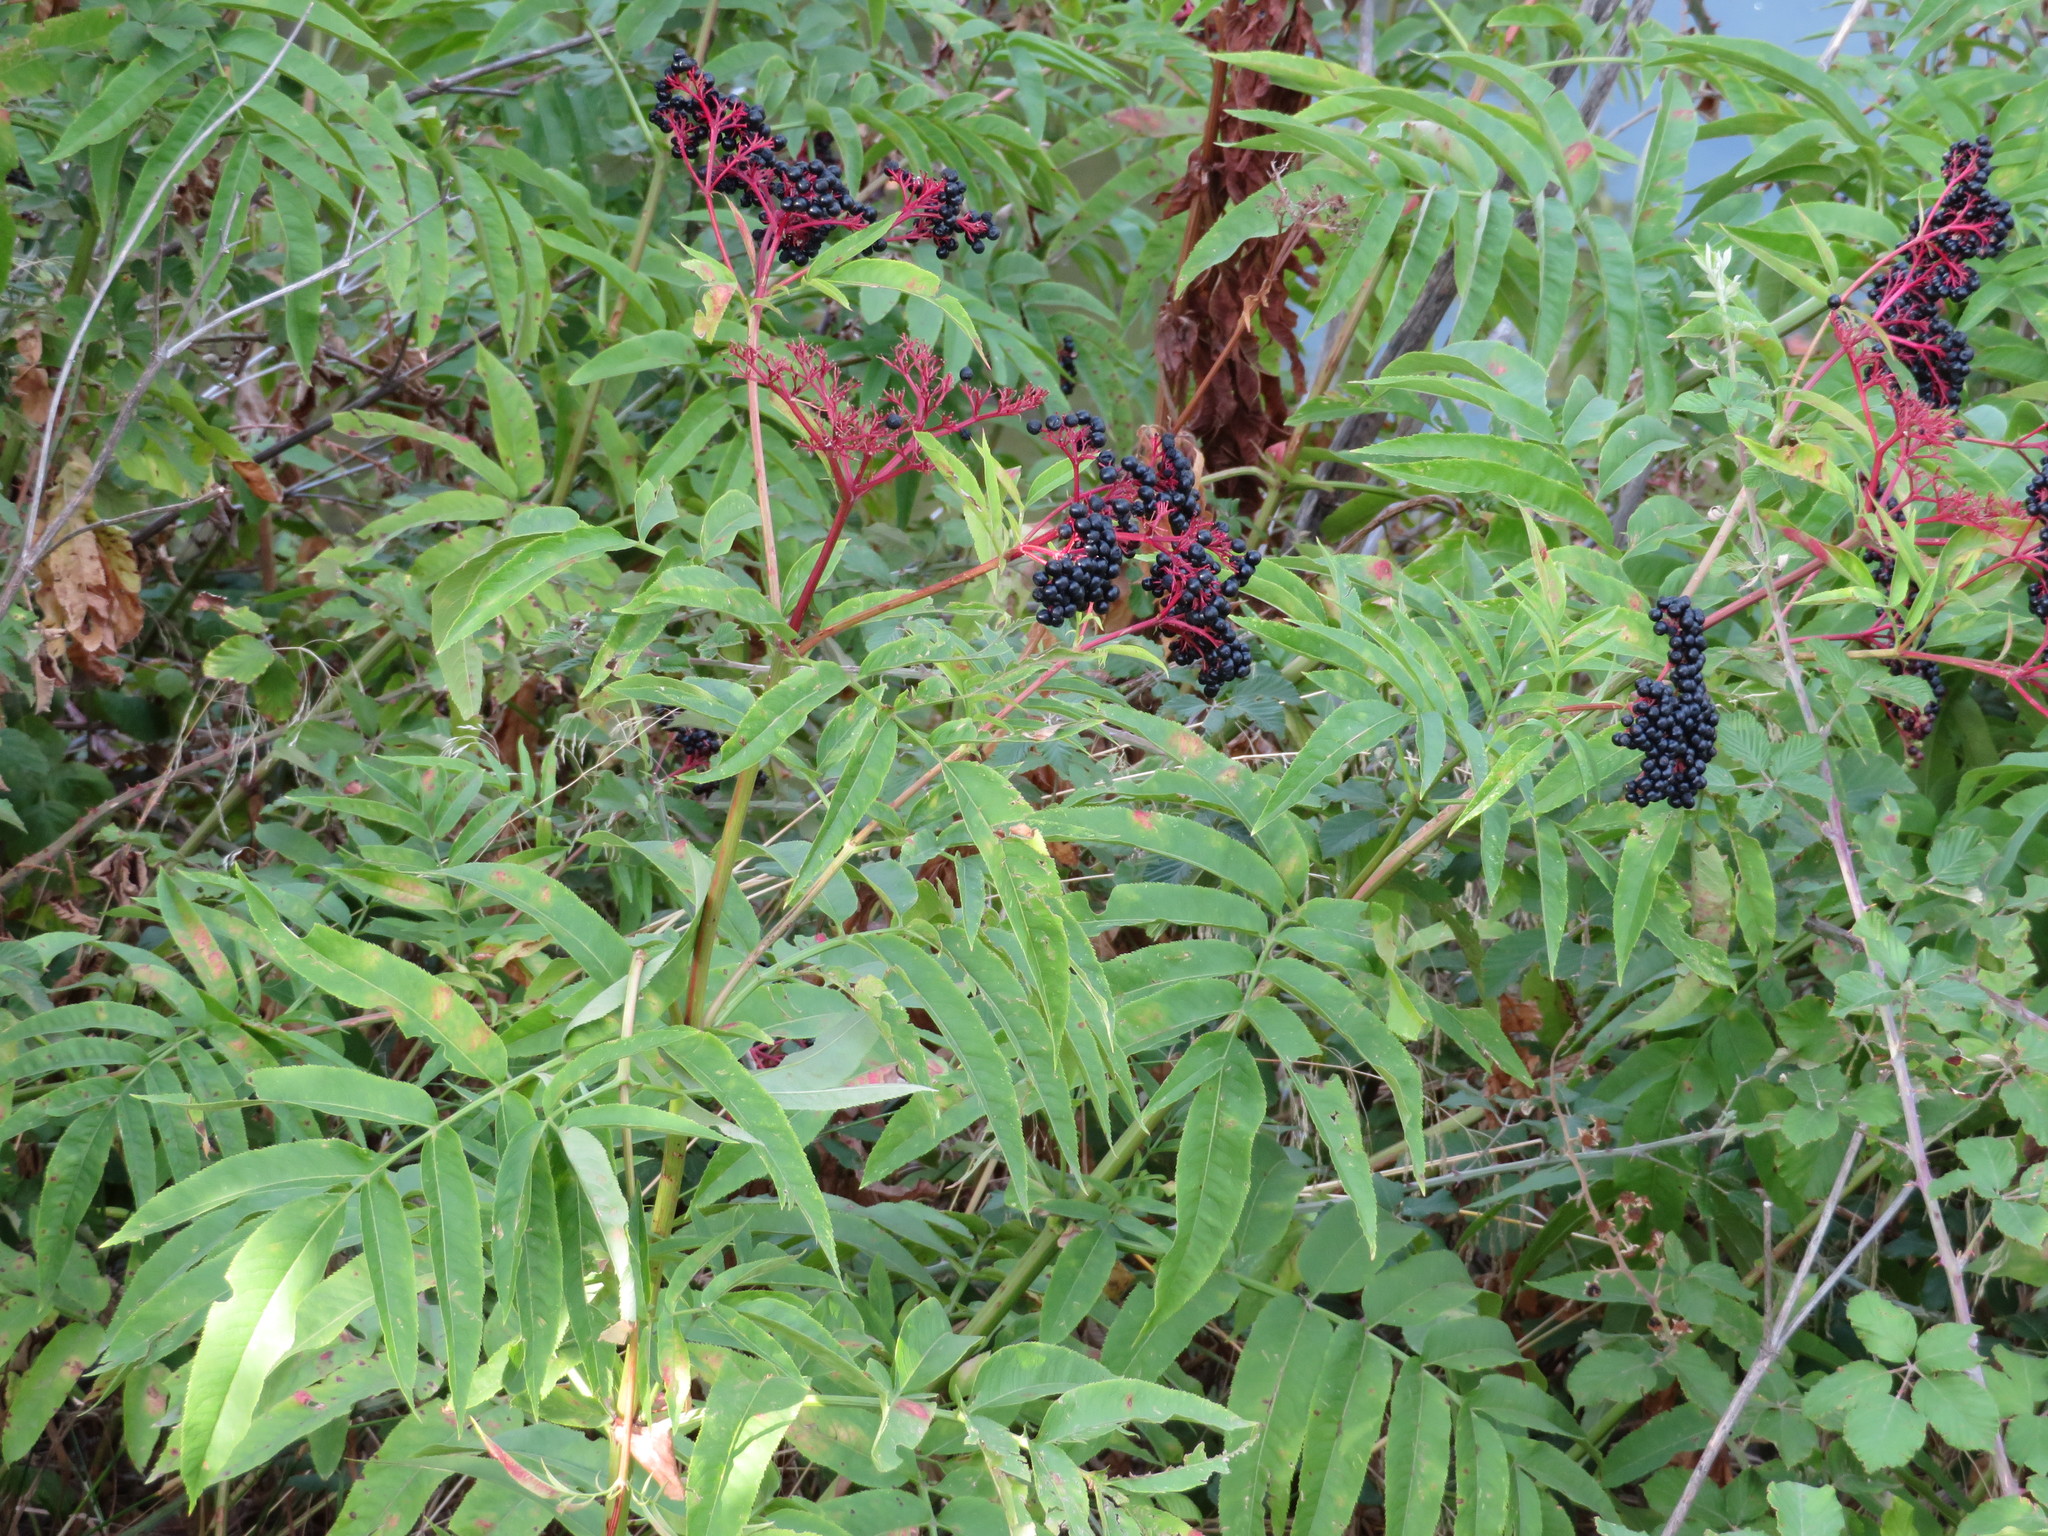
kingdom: Plantae
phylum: Tracheophyta
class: Magnoliopsida
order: Dipsacales
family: Viburnaceae
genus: Sambucus
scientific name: Sambucus ebulus
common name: Dwarf elder
